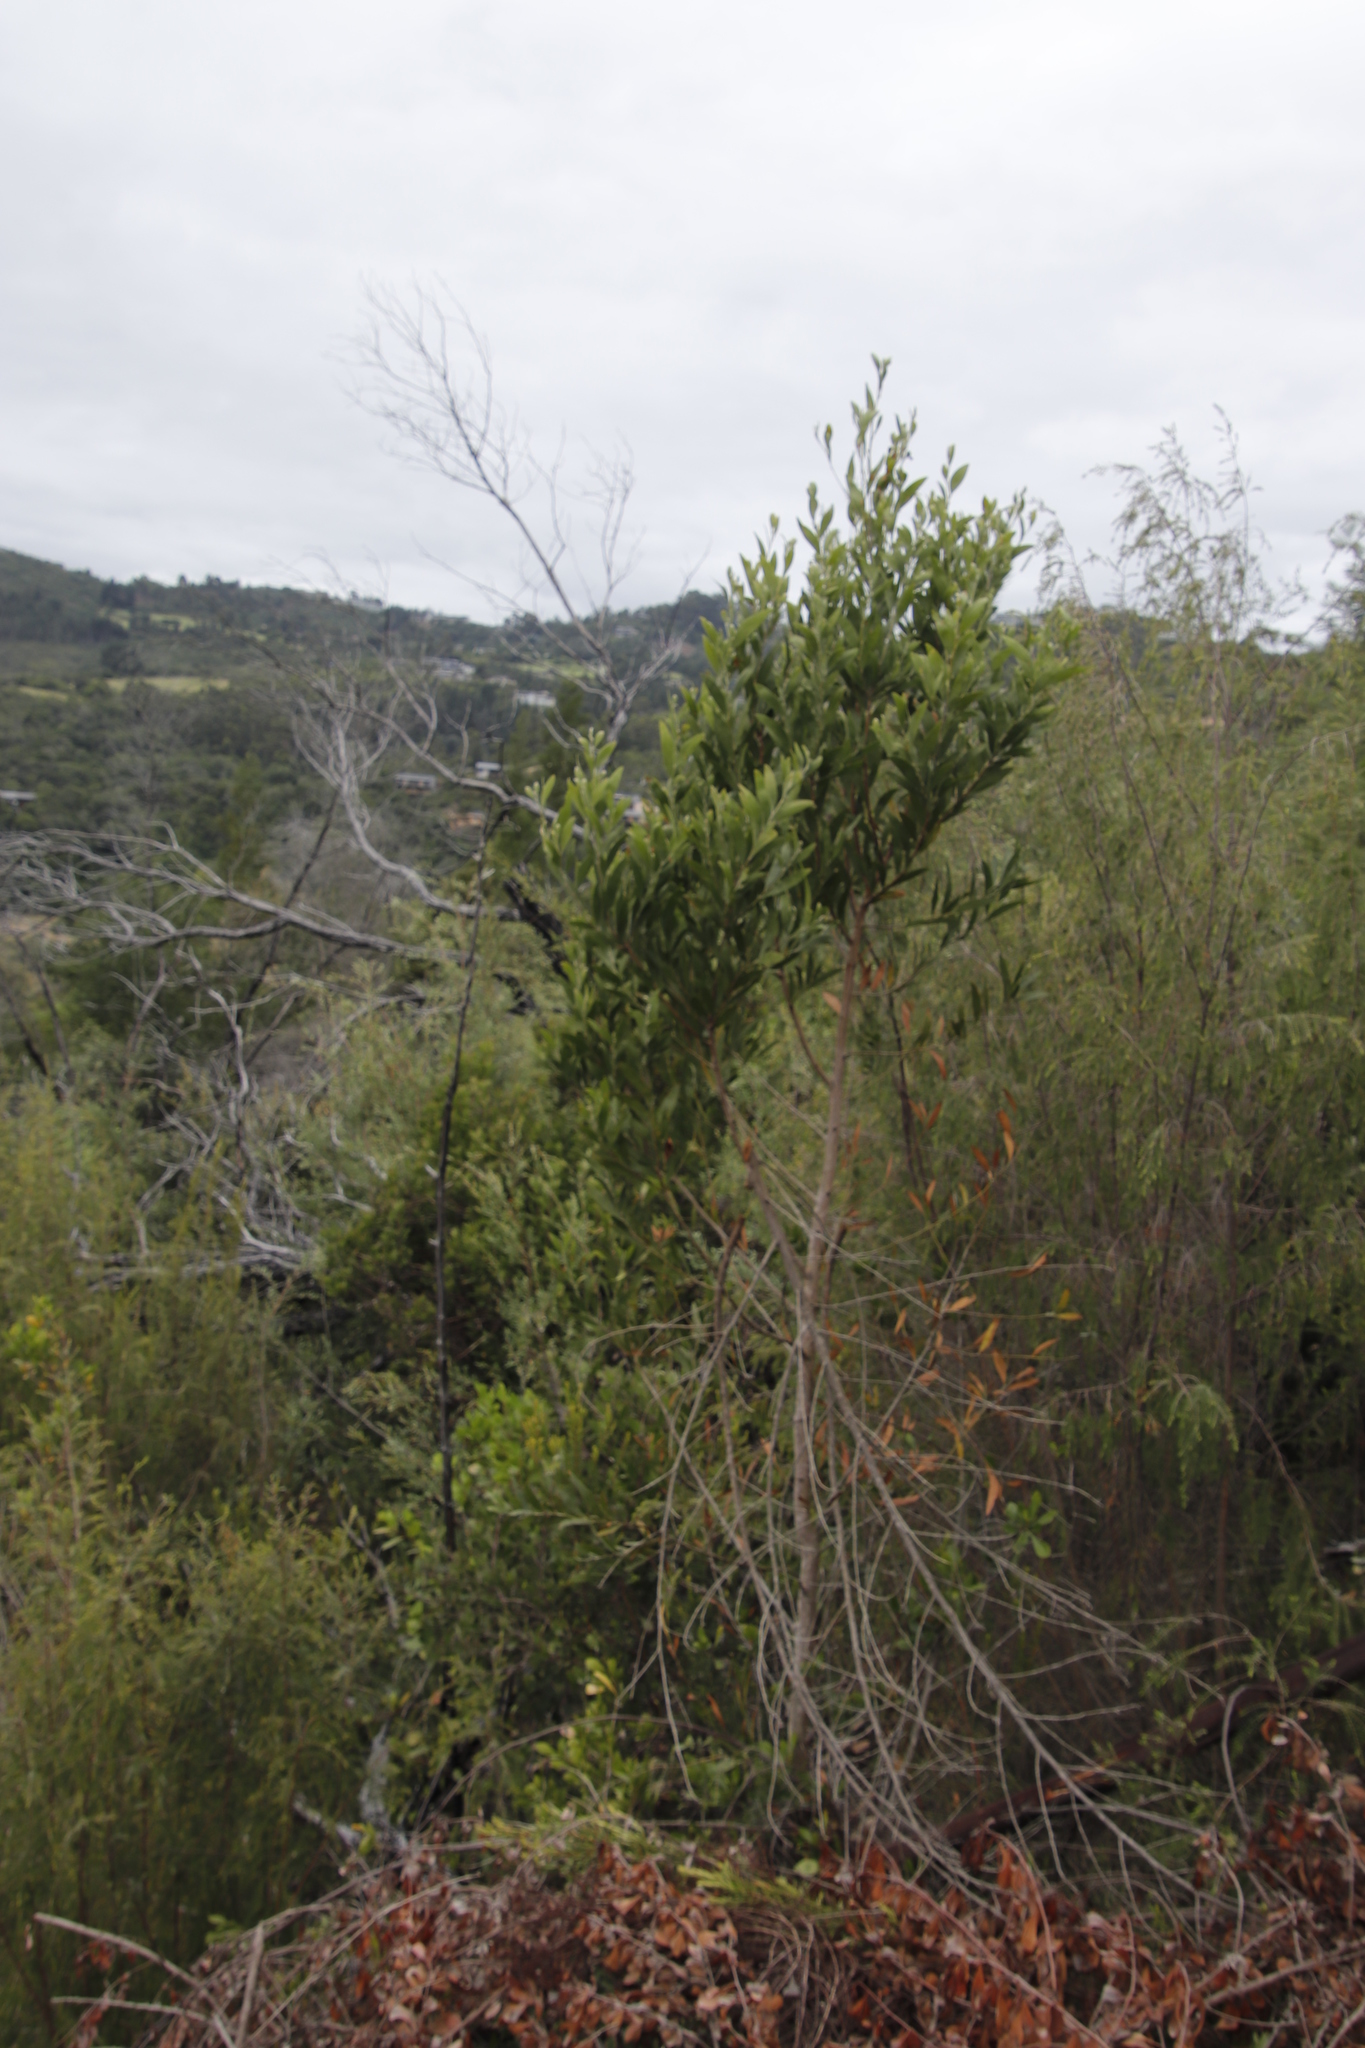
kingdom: Plantae
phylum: Tracheophyta
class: Magnoliopsida
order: Fabales
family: Fabaceae
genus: Acacia
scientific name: Acacia melanoxylon
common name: Blackwood
